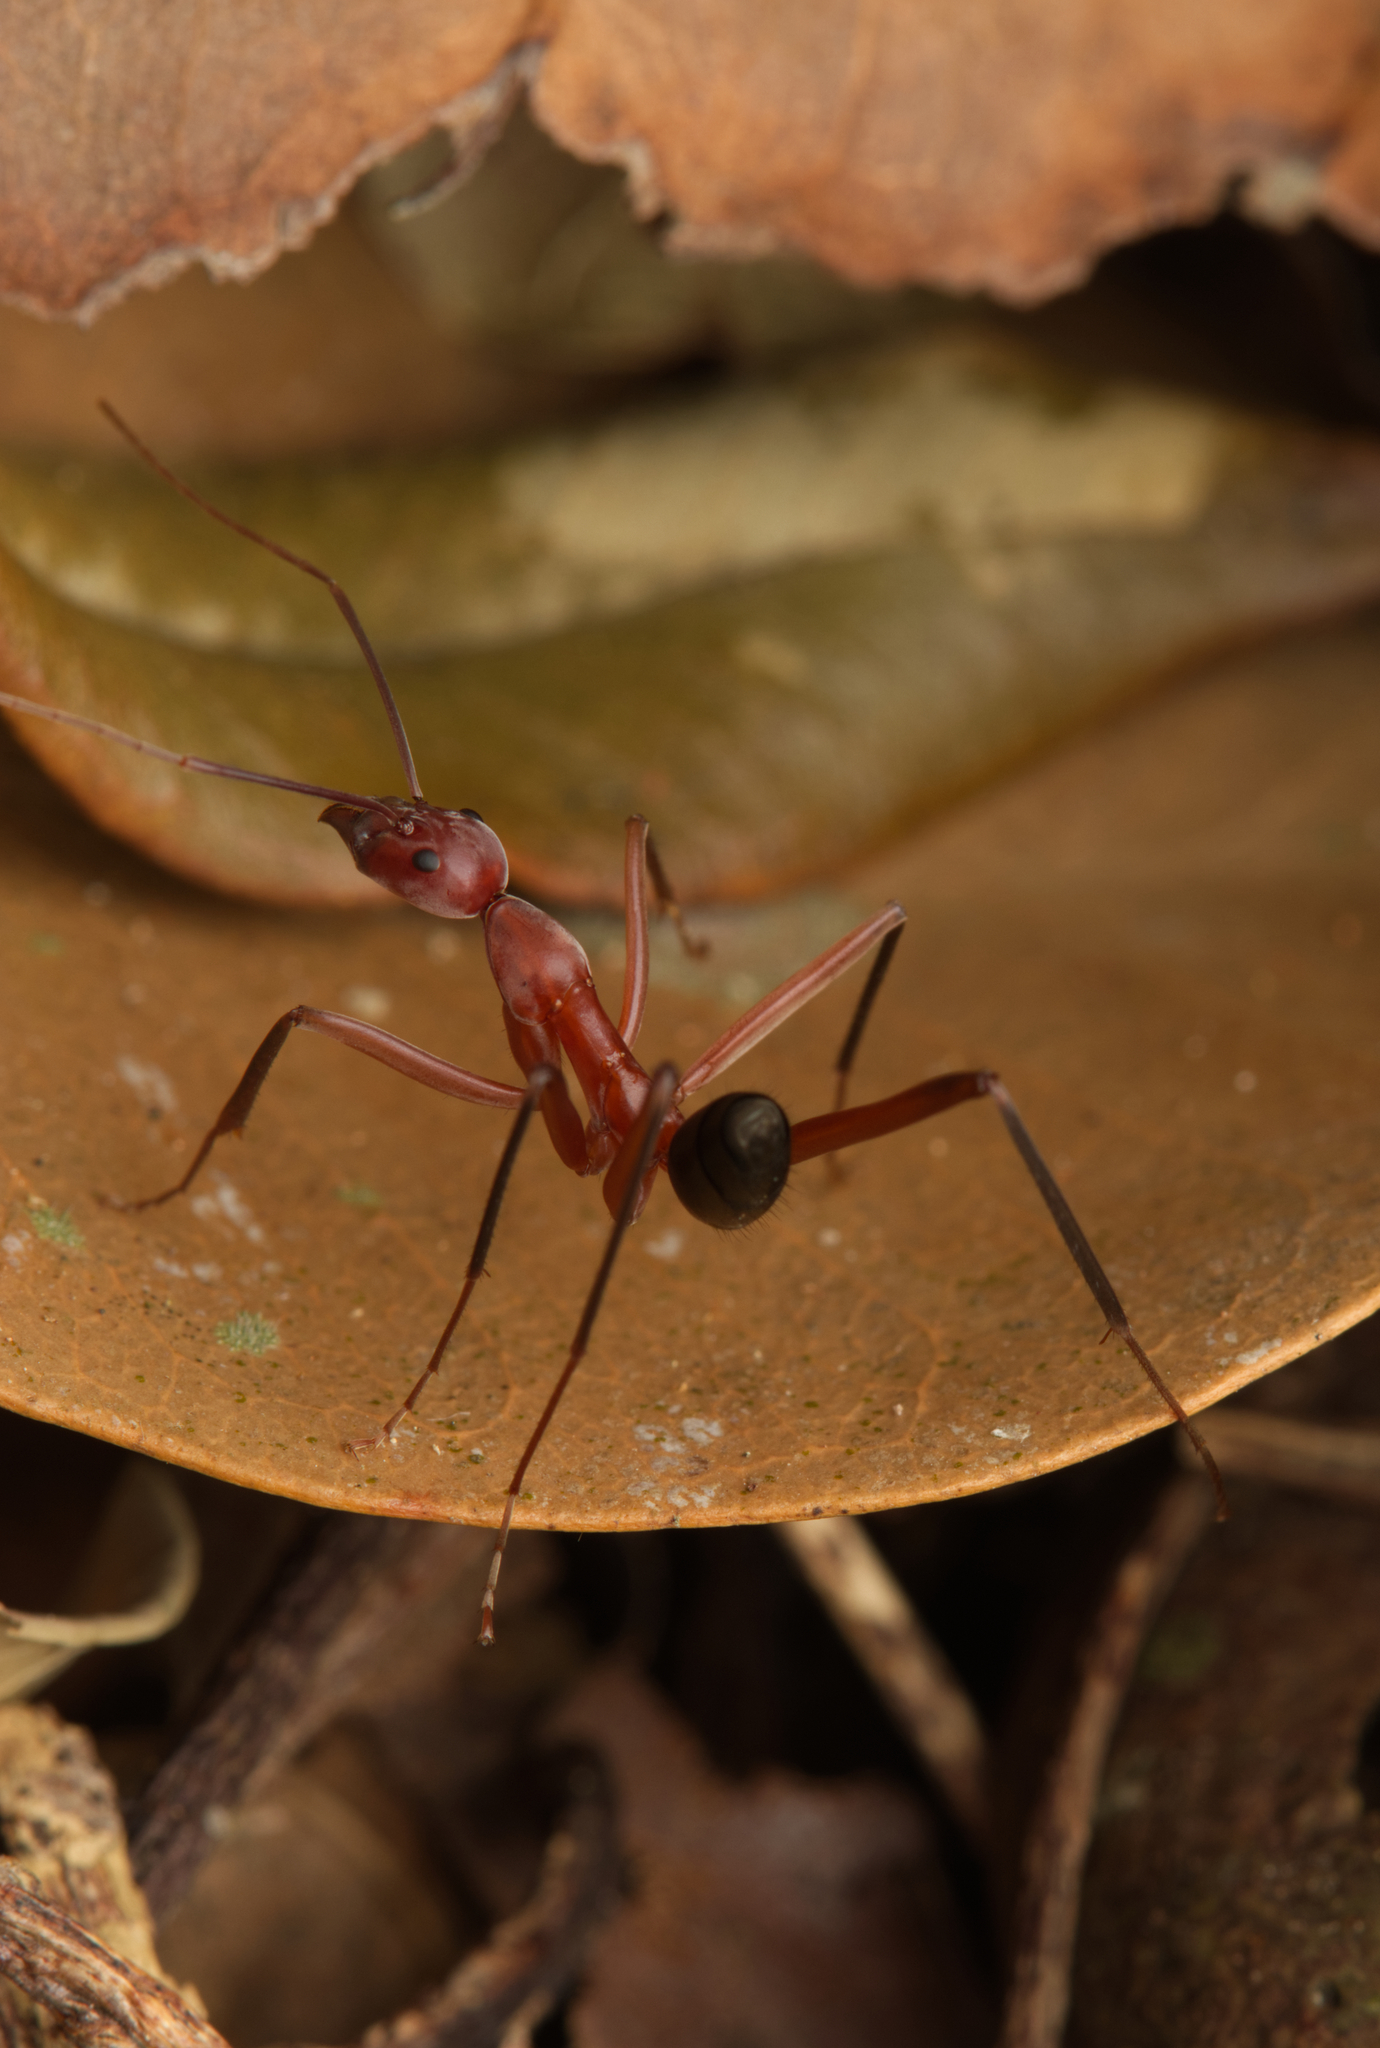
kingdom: Animalia
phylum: Arthropoda
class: Insecta
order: Hymenoptera
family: Formicidae
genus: Leptomyrmex
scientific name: Leptomyrmex tibialis
